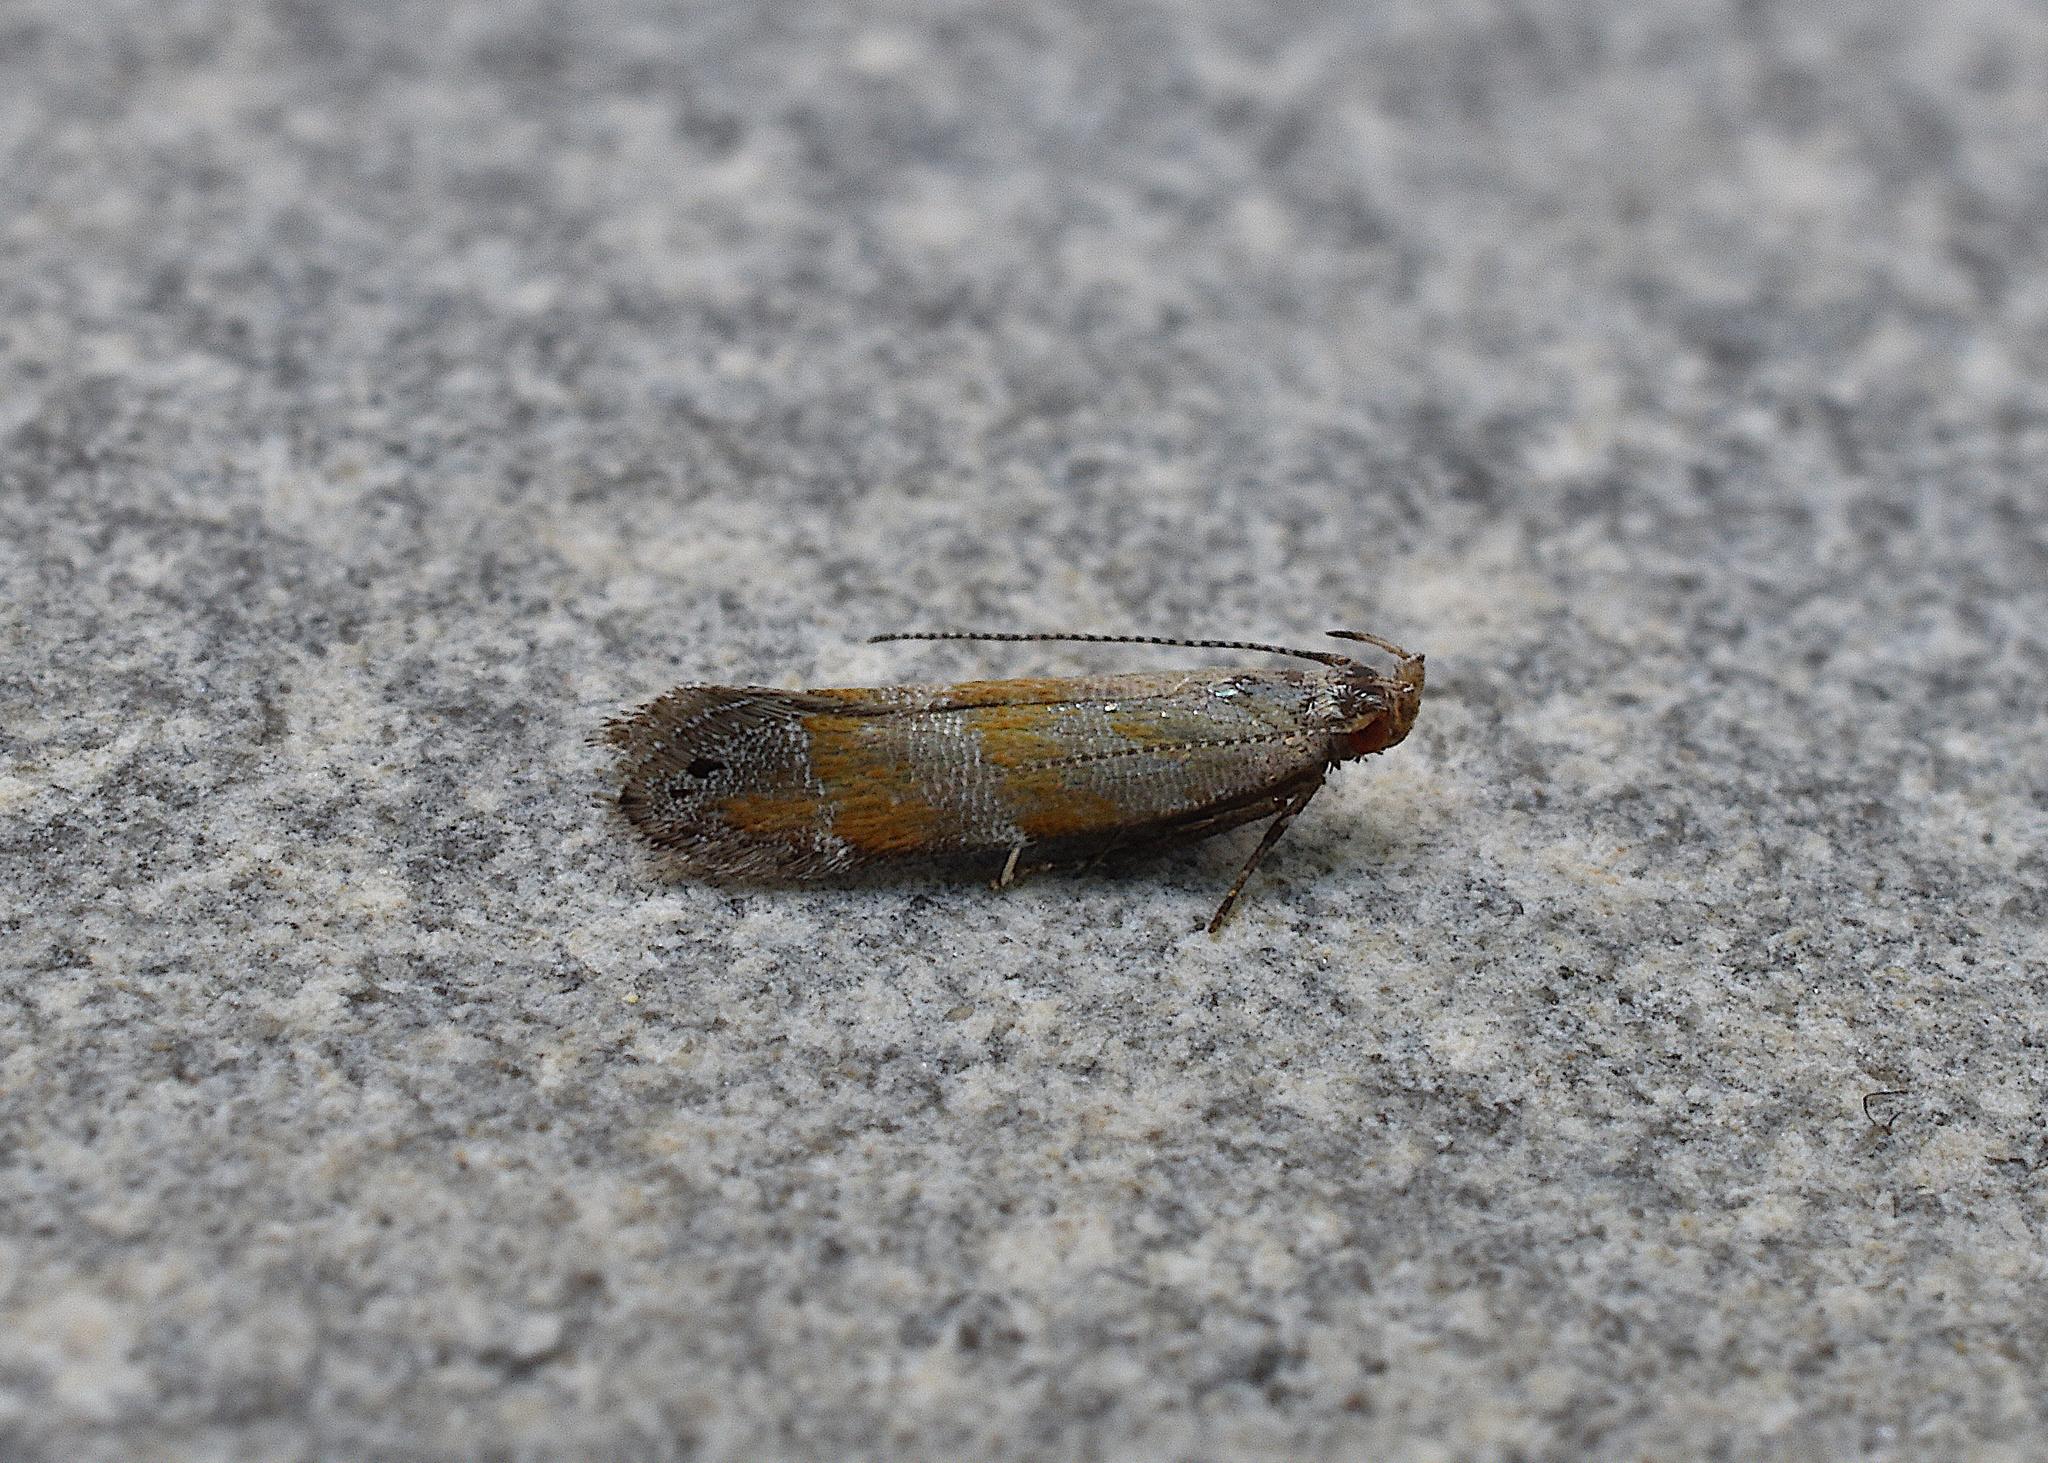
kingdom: Animalia
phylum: Arthropoda
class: Insecta
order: Lepidoptera
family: Gelechiidae
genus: Battaristis
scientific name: Battaristis vittella
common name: Orange stripe-backed moth
